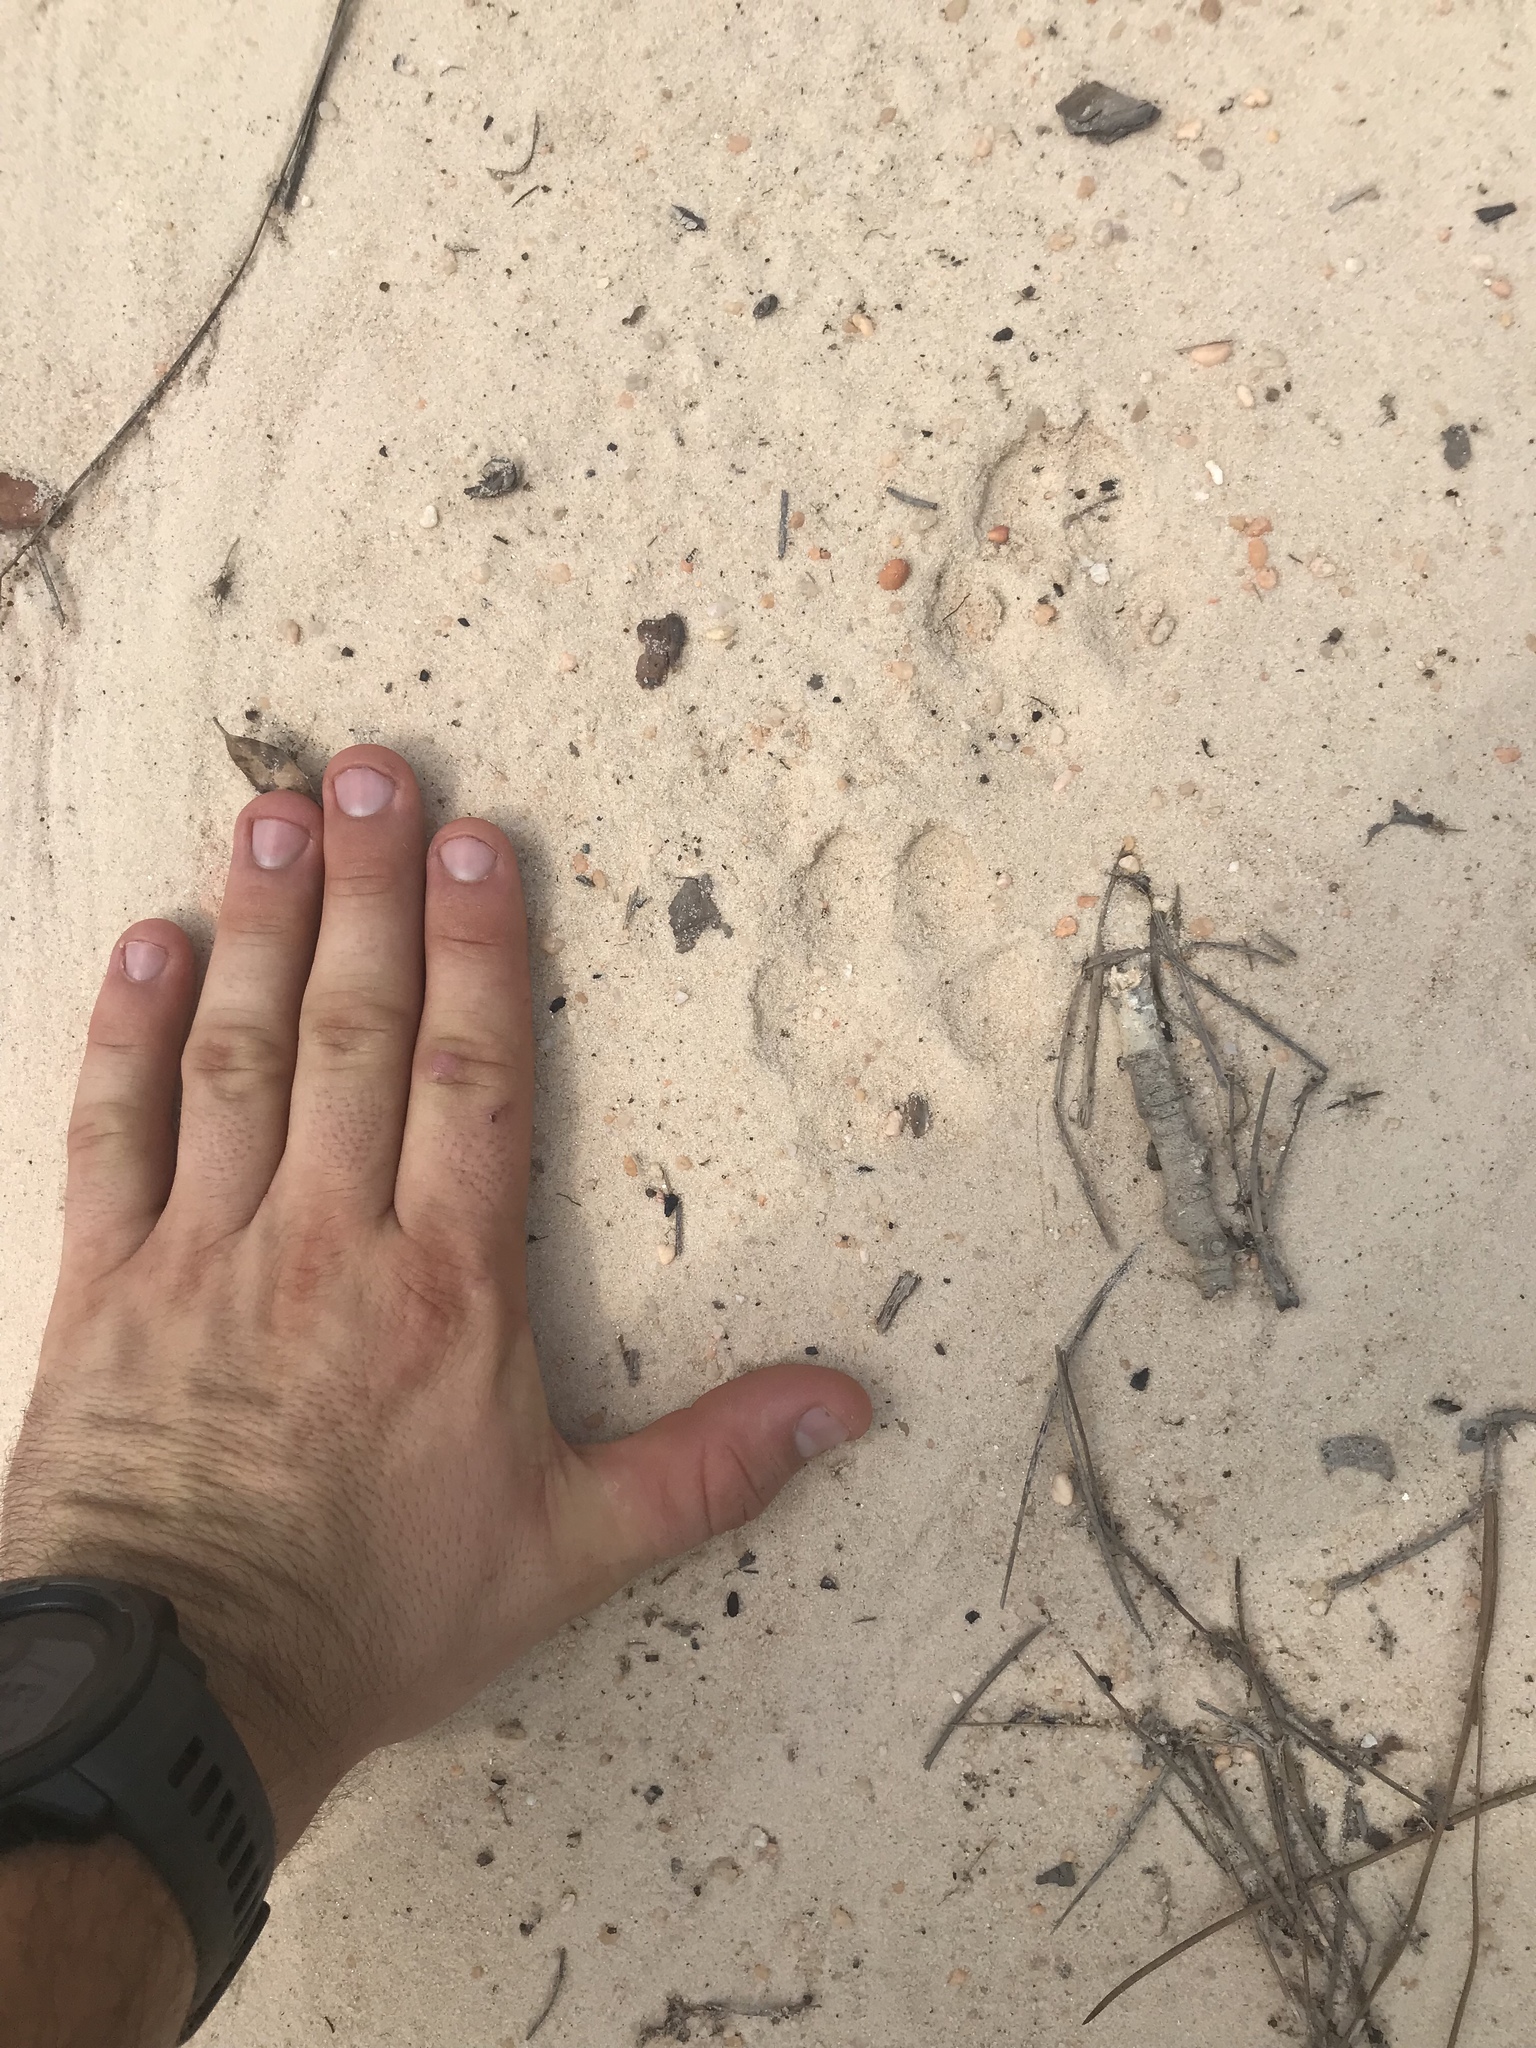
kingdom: Animalia
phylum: Chordata
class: Mammalia
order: Carnivora
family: Canidae
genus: Canis
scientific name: Canis latrans
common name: Coyote
